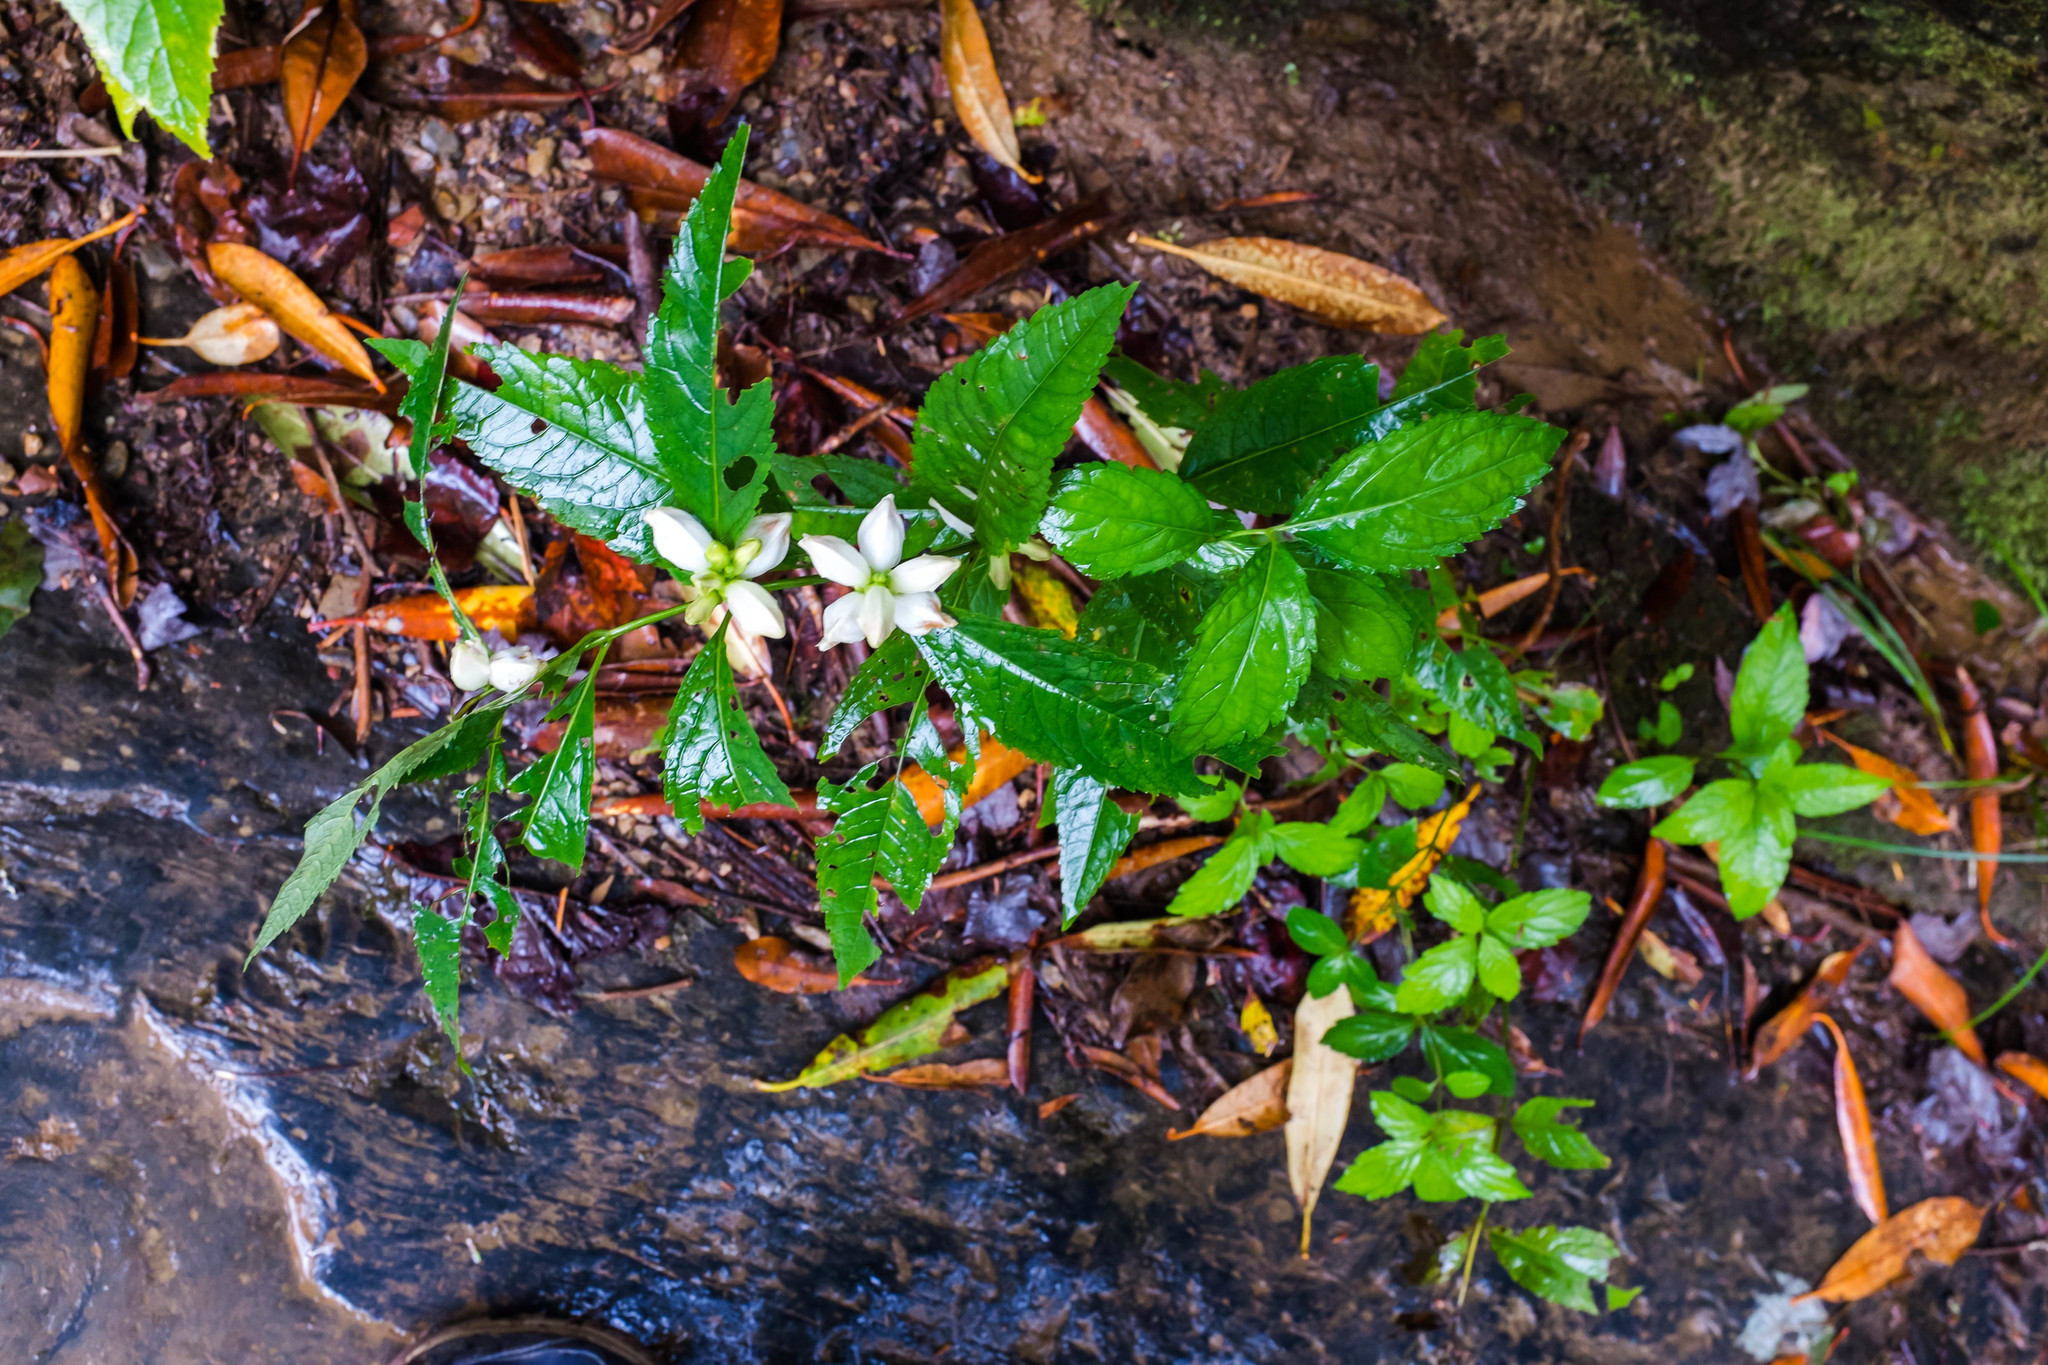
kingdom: Plantae
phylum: Tracheophyta
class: Magnoliopsida
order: Lamiales
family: Plantaginaceae
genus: Chelone
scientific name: Chelone glabra
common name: Snakehead
